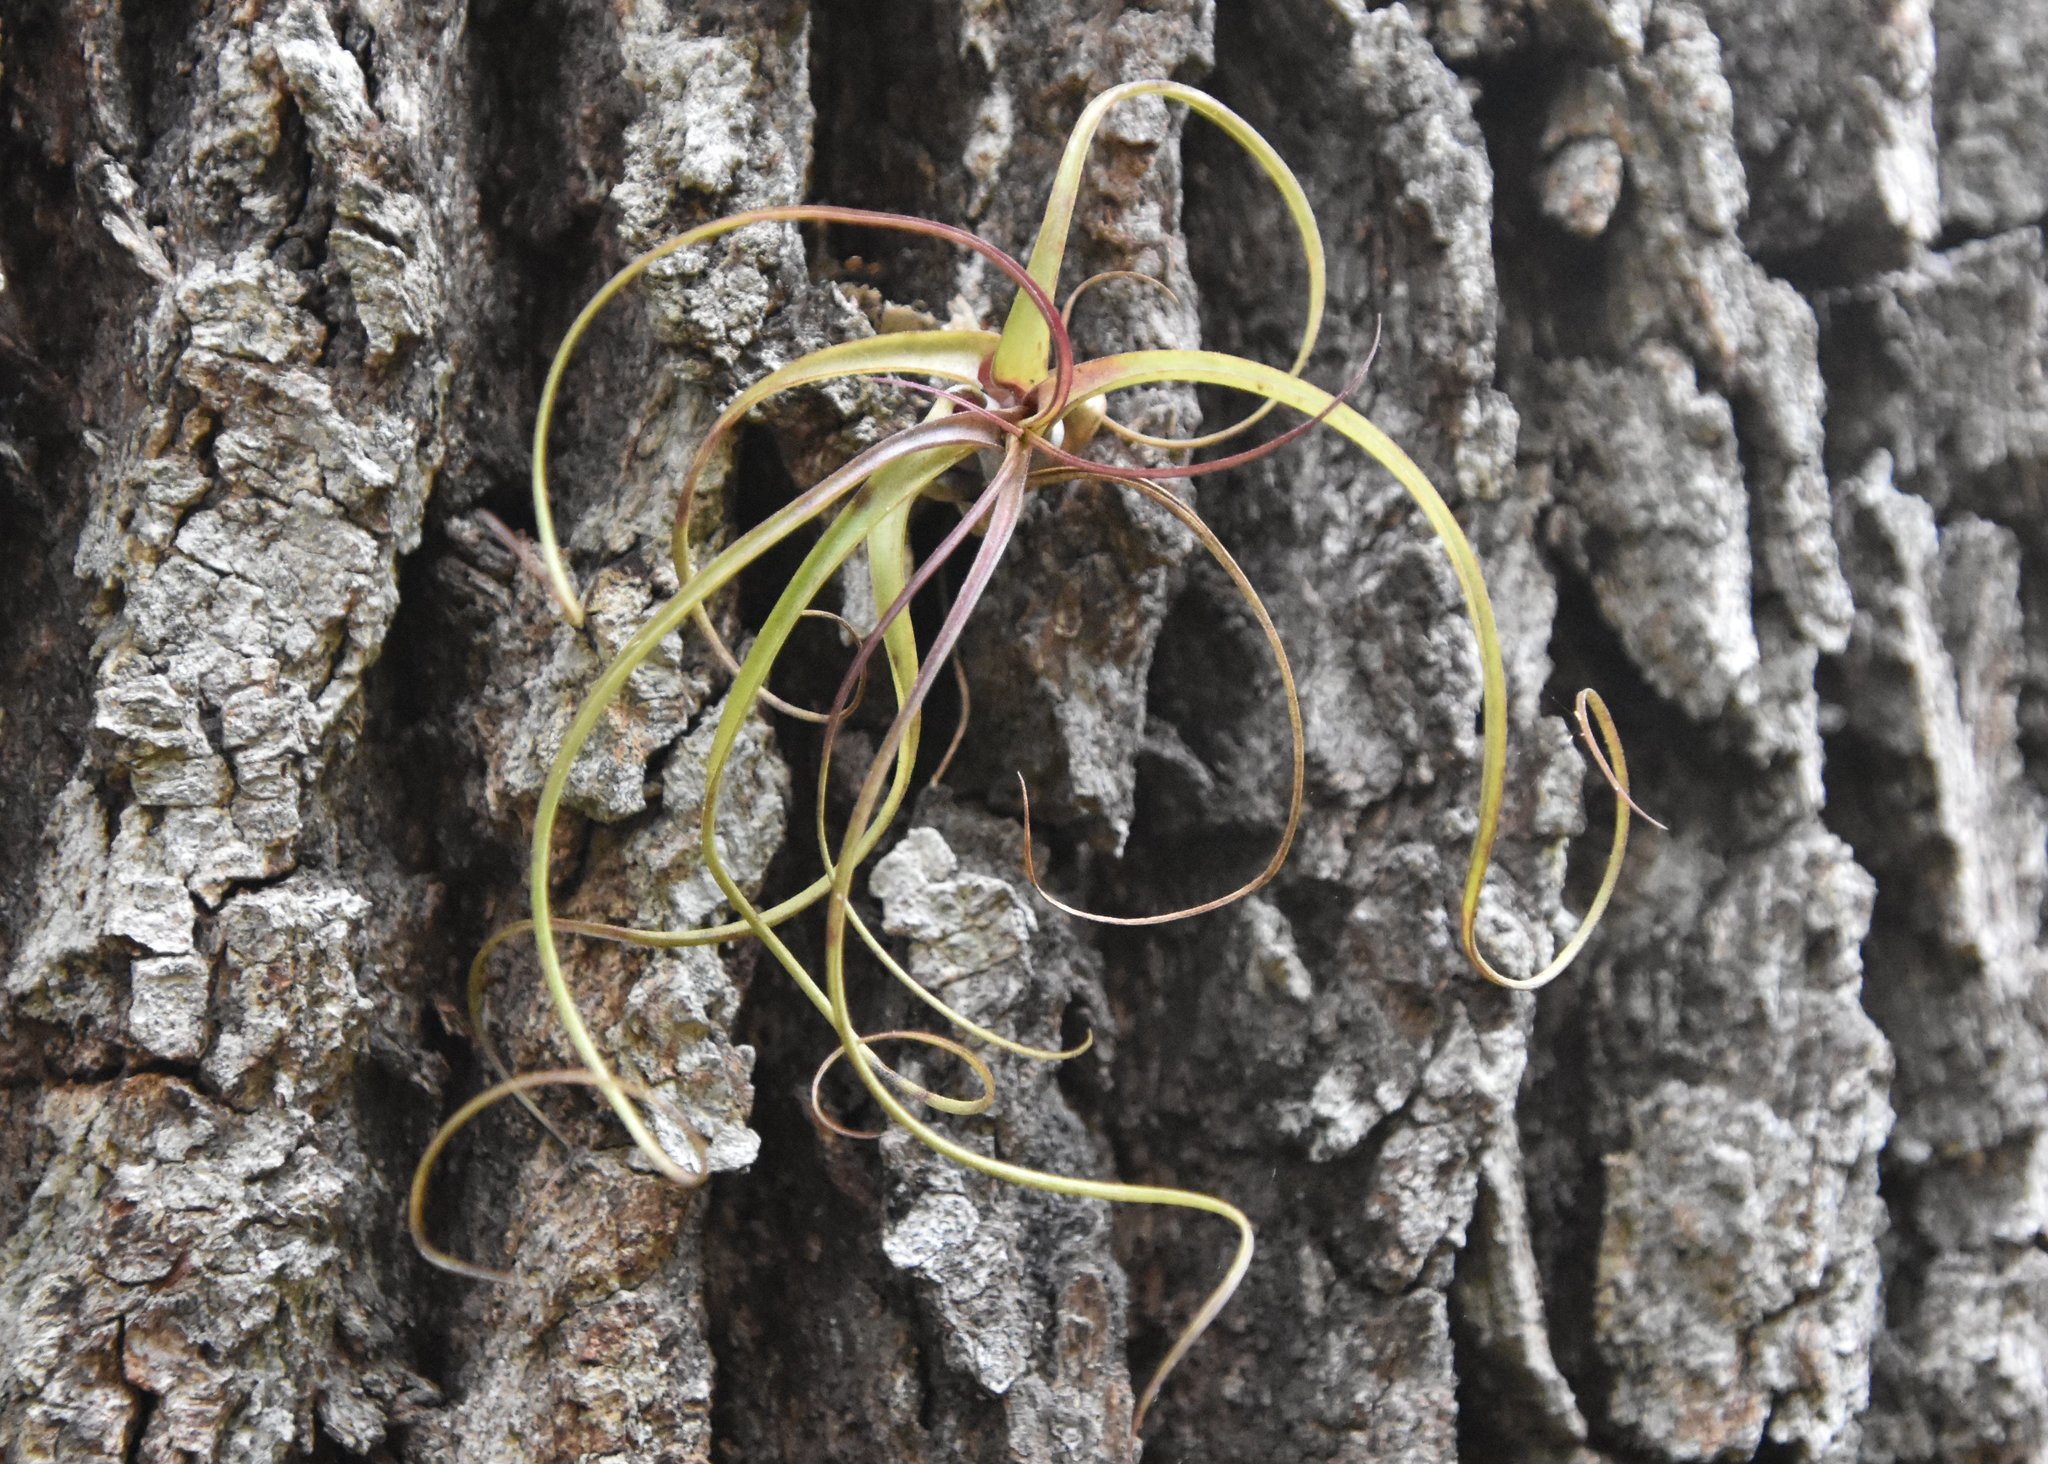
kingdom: Plantae
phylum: Tracheophyta
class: Liliopsida
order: Poales
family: Bromeliaceae
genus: Tillandsia
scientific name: Tillandsia balbisiana
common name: Northern needleleaf
